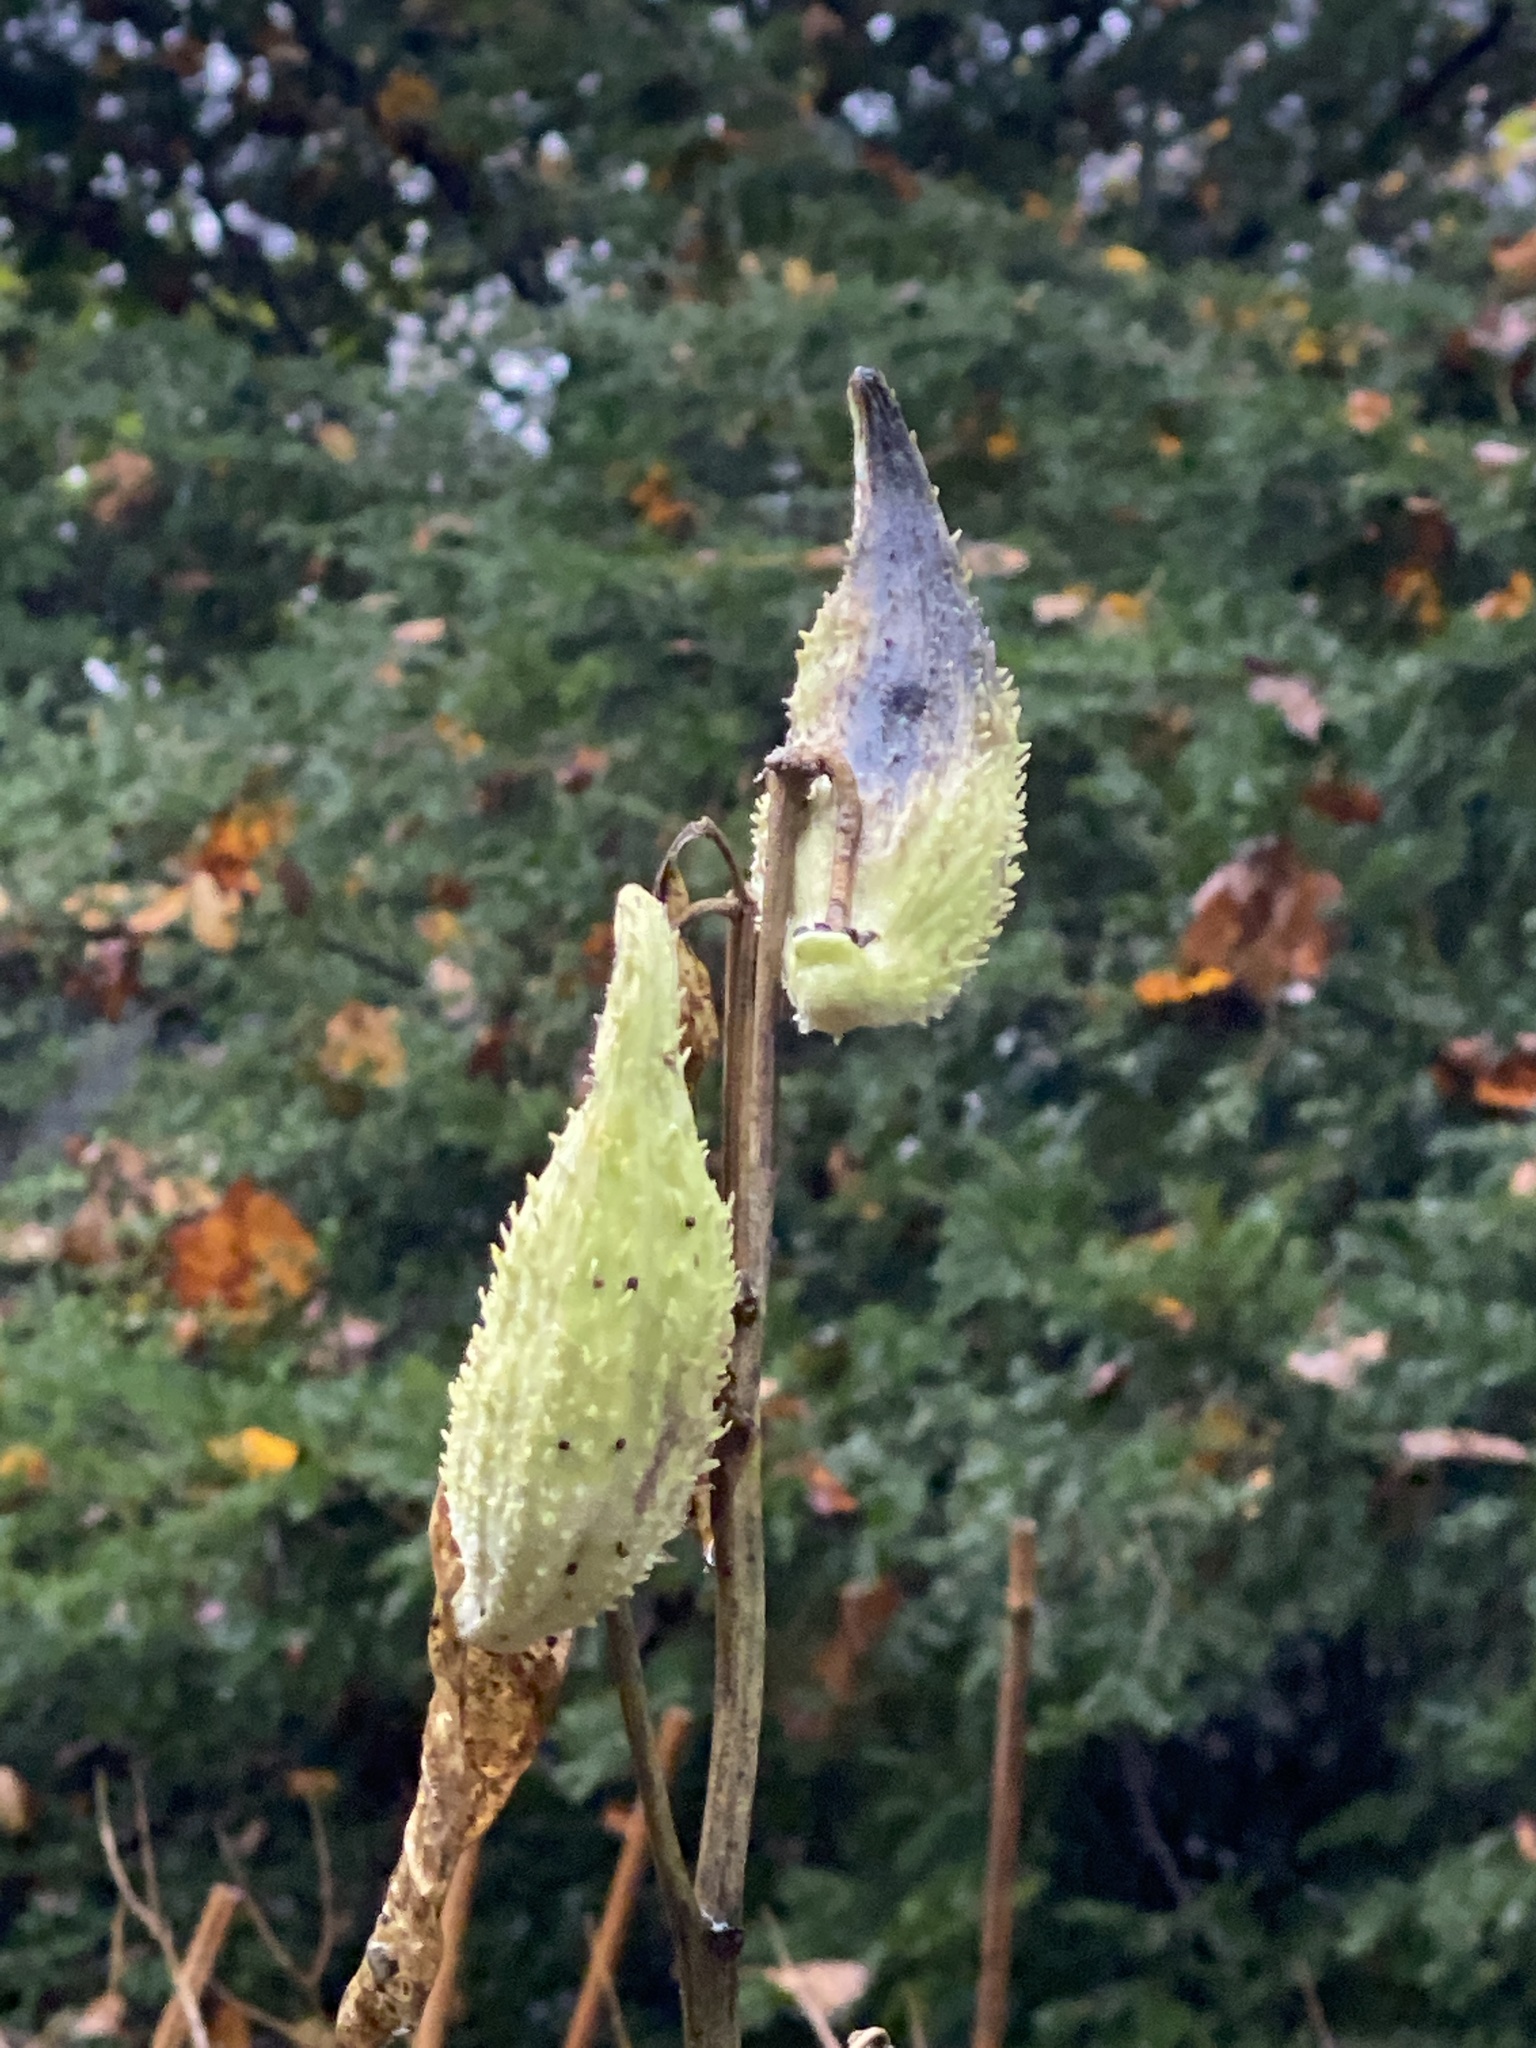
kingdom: Plantae
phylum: Tracheophyta
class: Magnoliopsida
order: Gentianales
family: Apocynaceae
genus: Asclepias
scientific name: Asclepias syriaca
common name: Common milkweed
